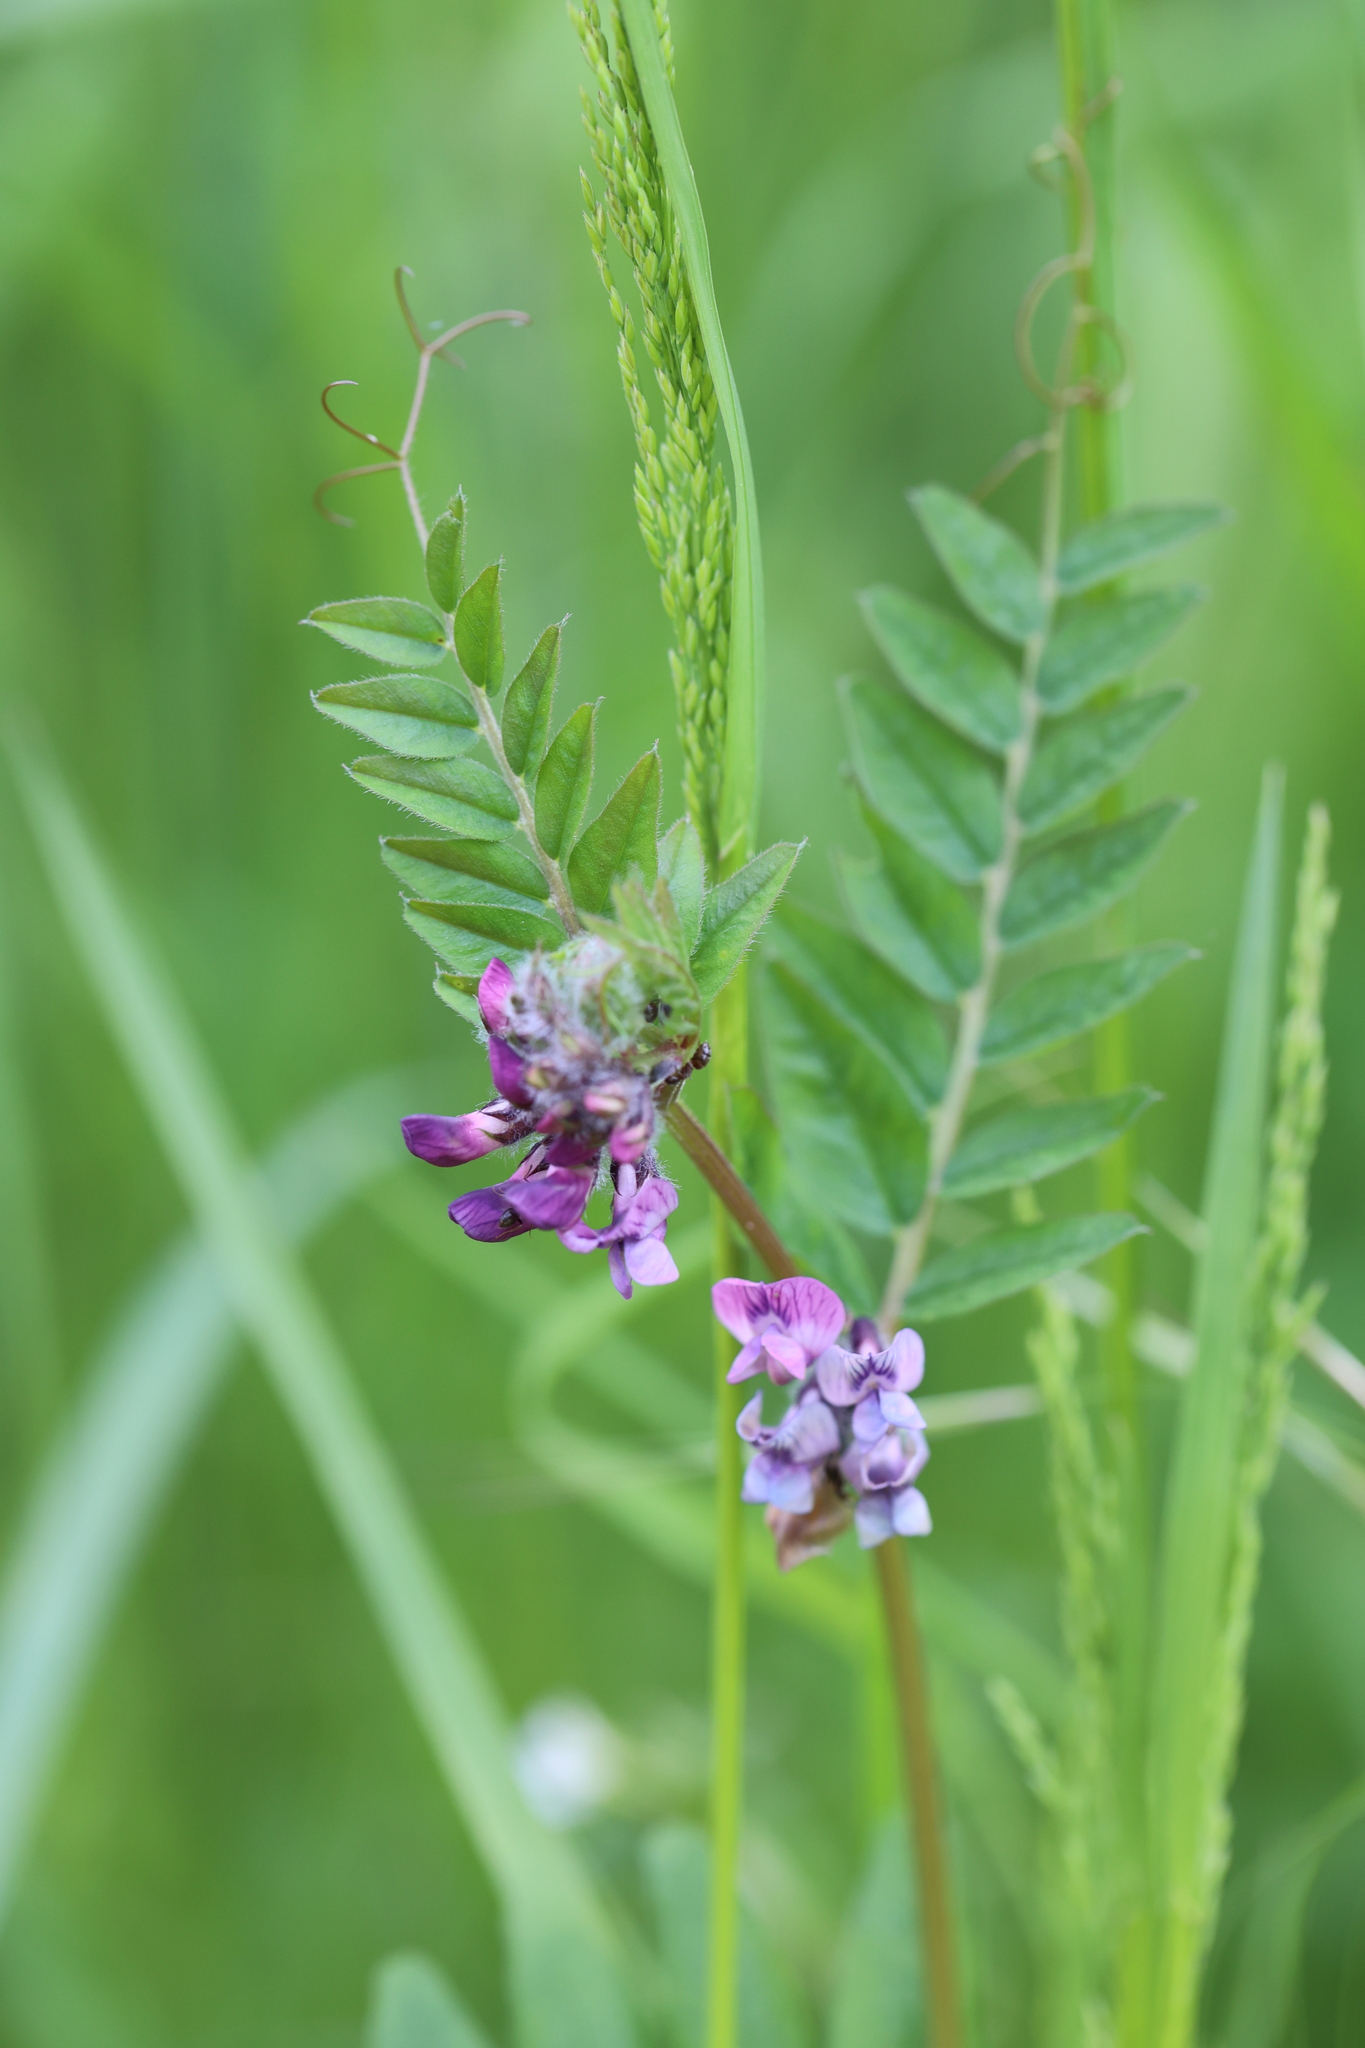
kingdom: Plantae
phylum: Tracheophyta
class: Magnoliopsida
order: Fabales
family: Fabaceae
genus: Vicia
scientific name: Vicia sepium
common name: Bush vetch
